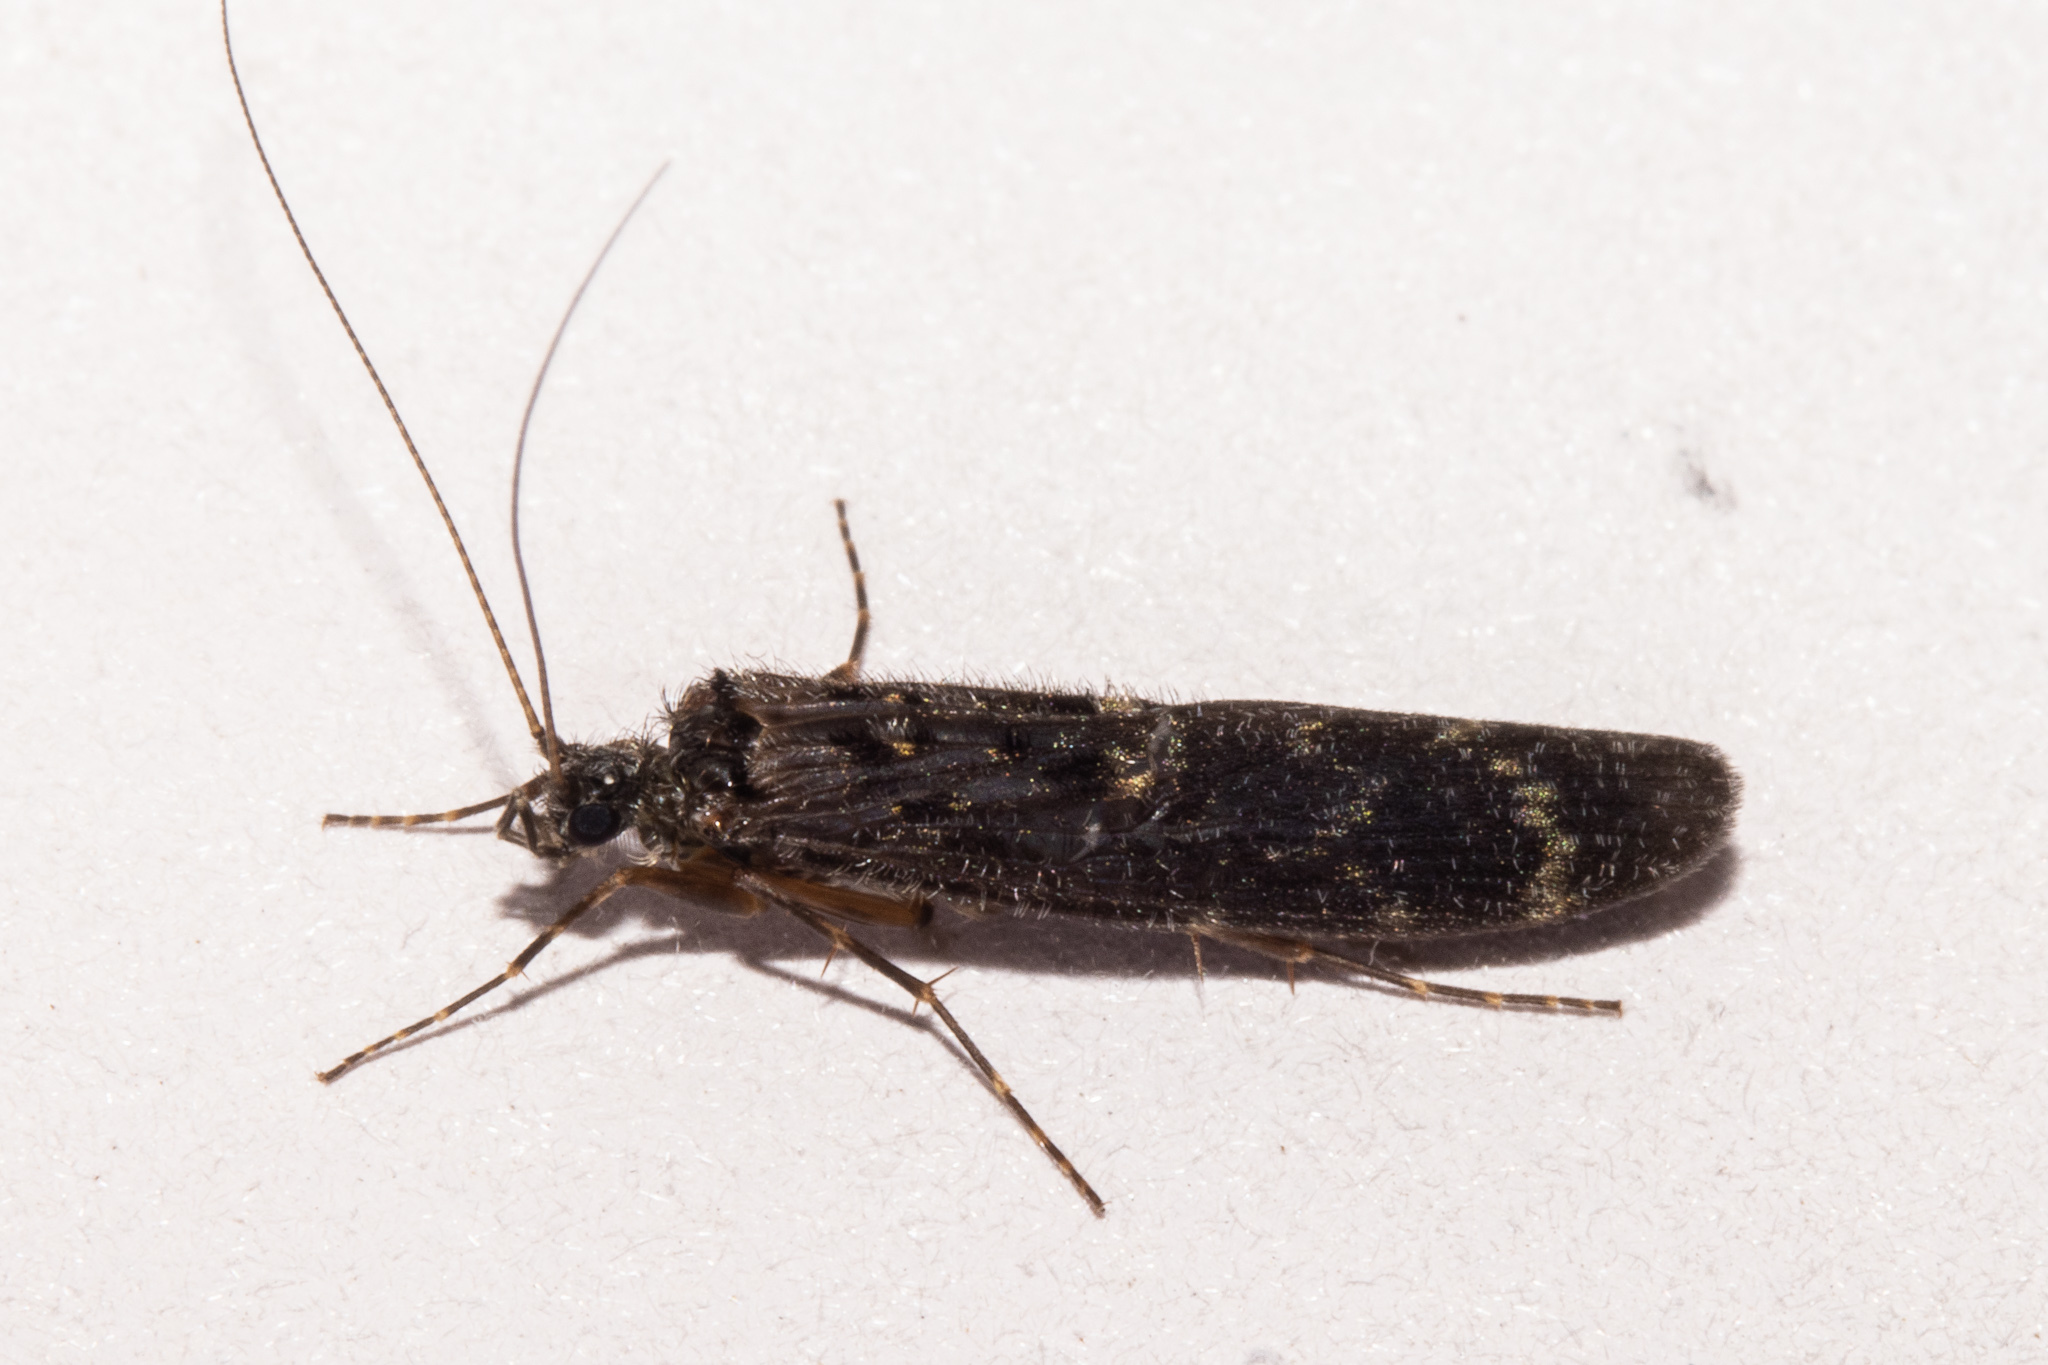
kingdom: Animalia
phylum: Arthropoda
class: Insecta
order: Trichoptera
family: Hydrobiosidae
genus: Psilochorema
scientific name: Psilochorema cheirodes
